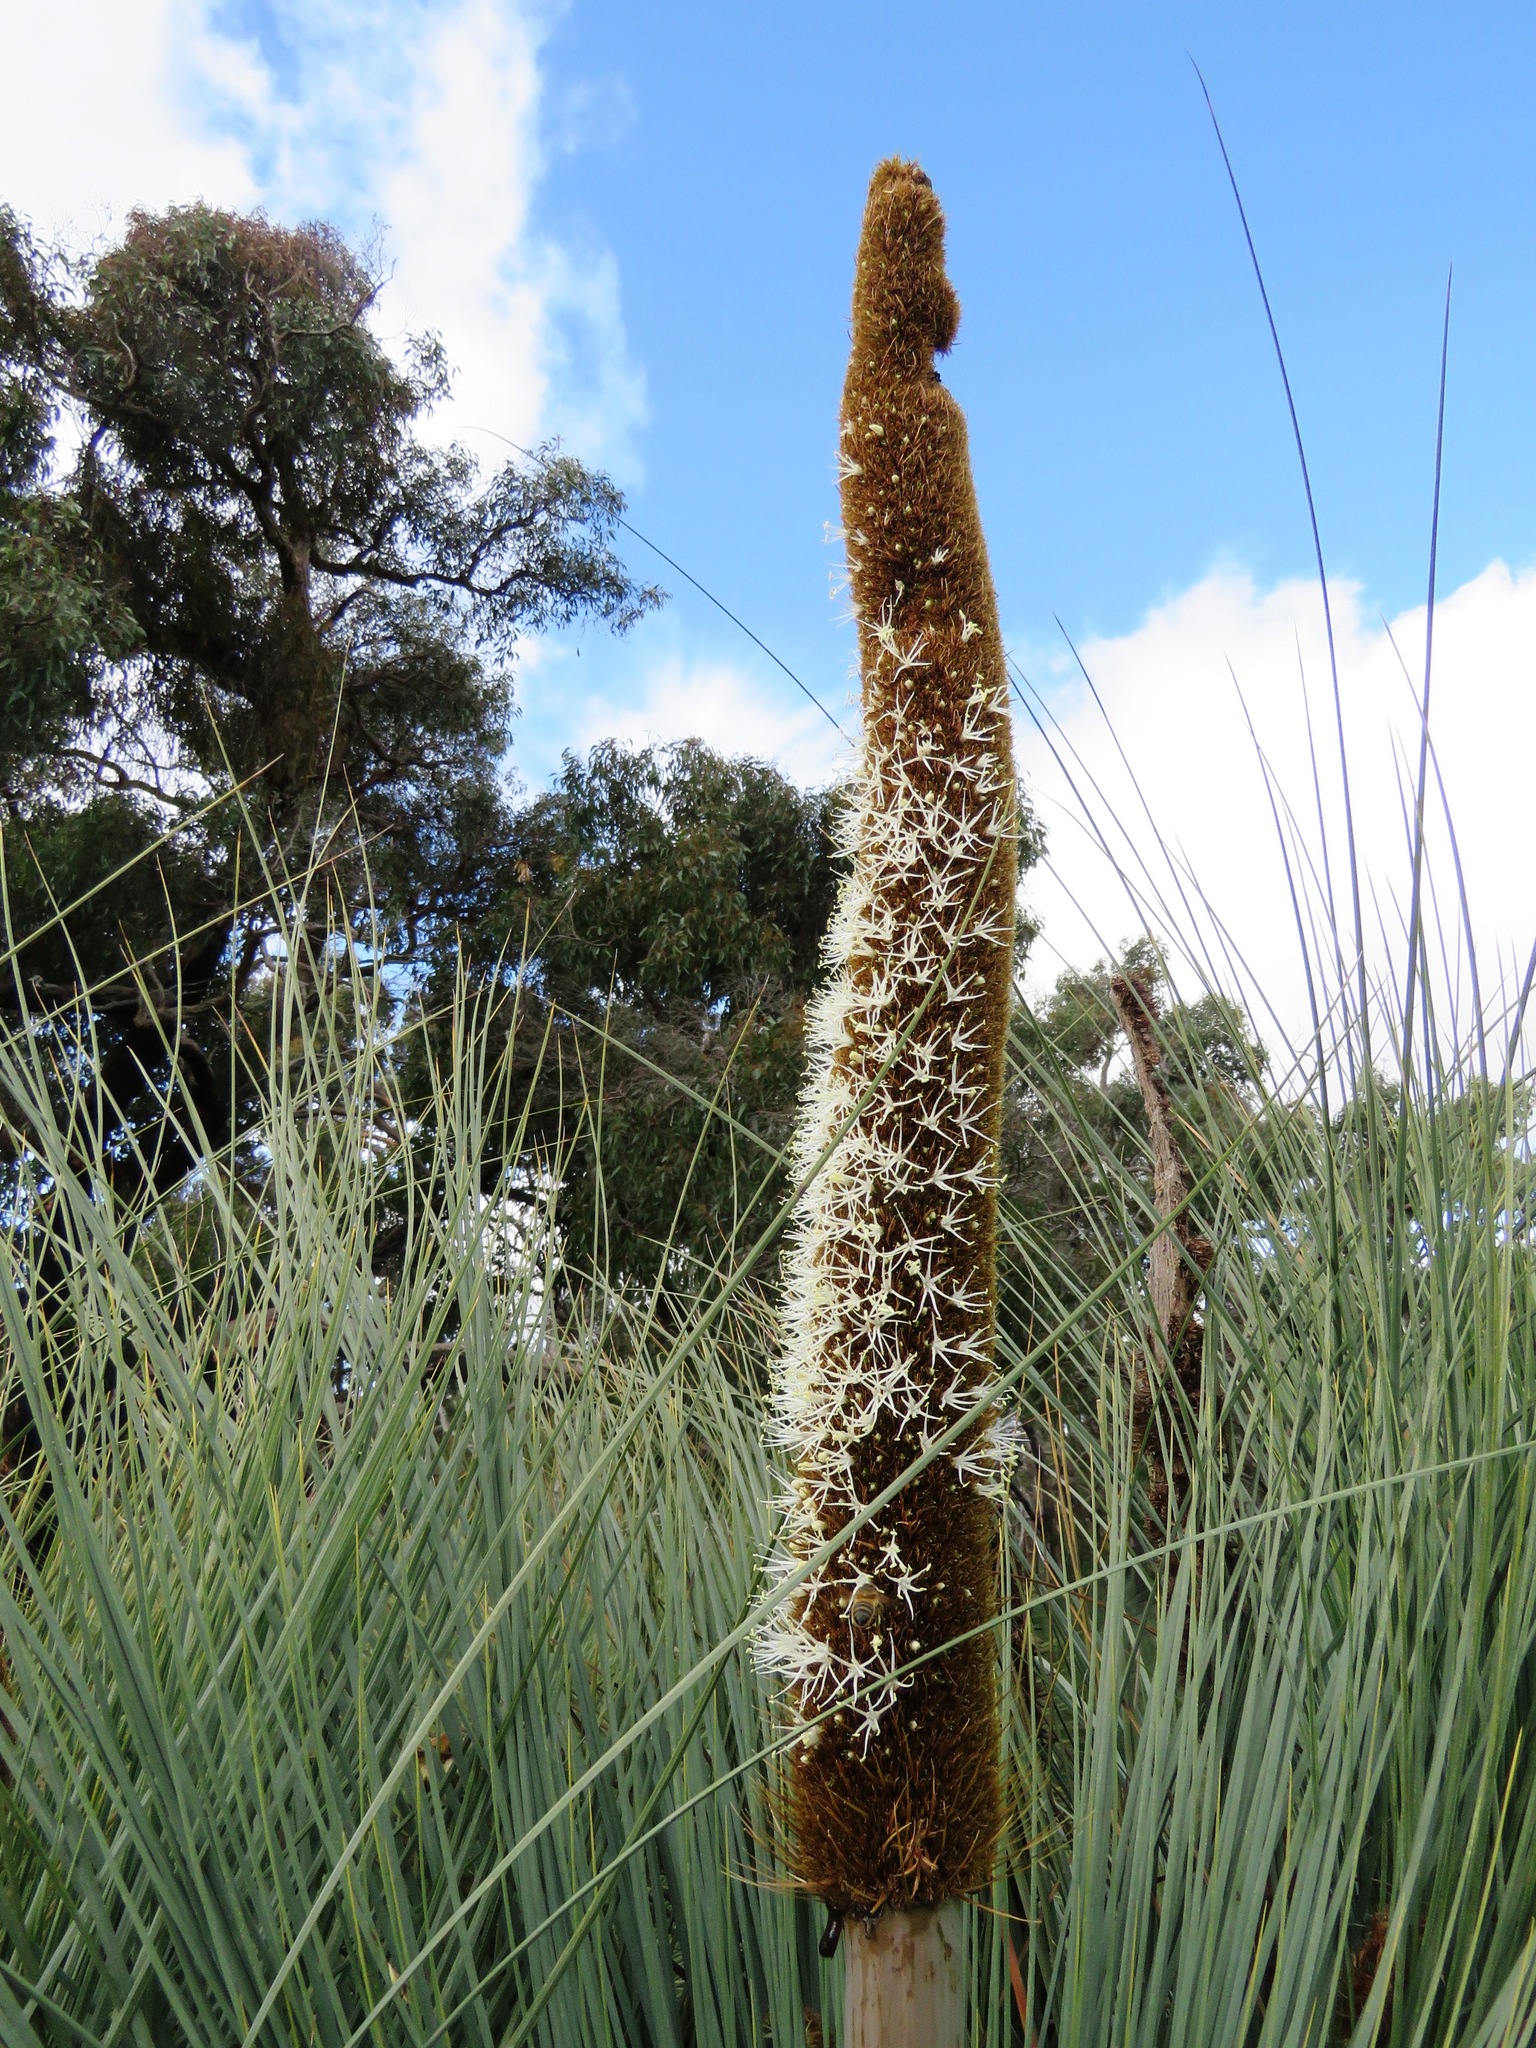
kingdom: Plantae
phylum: Tracheophyta
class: Liliopsida
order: Asparagales
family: Asphodelaceae
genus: Xanthorrhoea
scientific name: Xanthorrhoea australis
